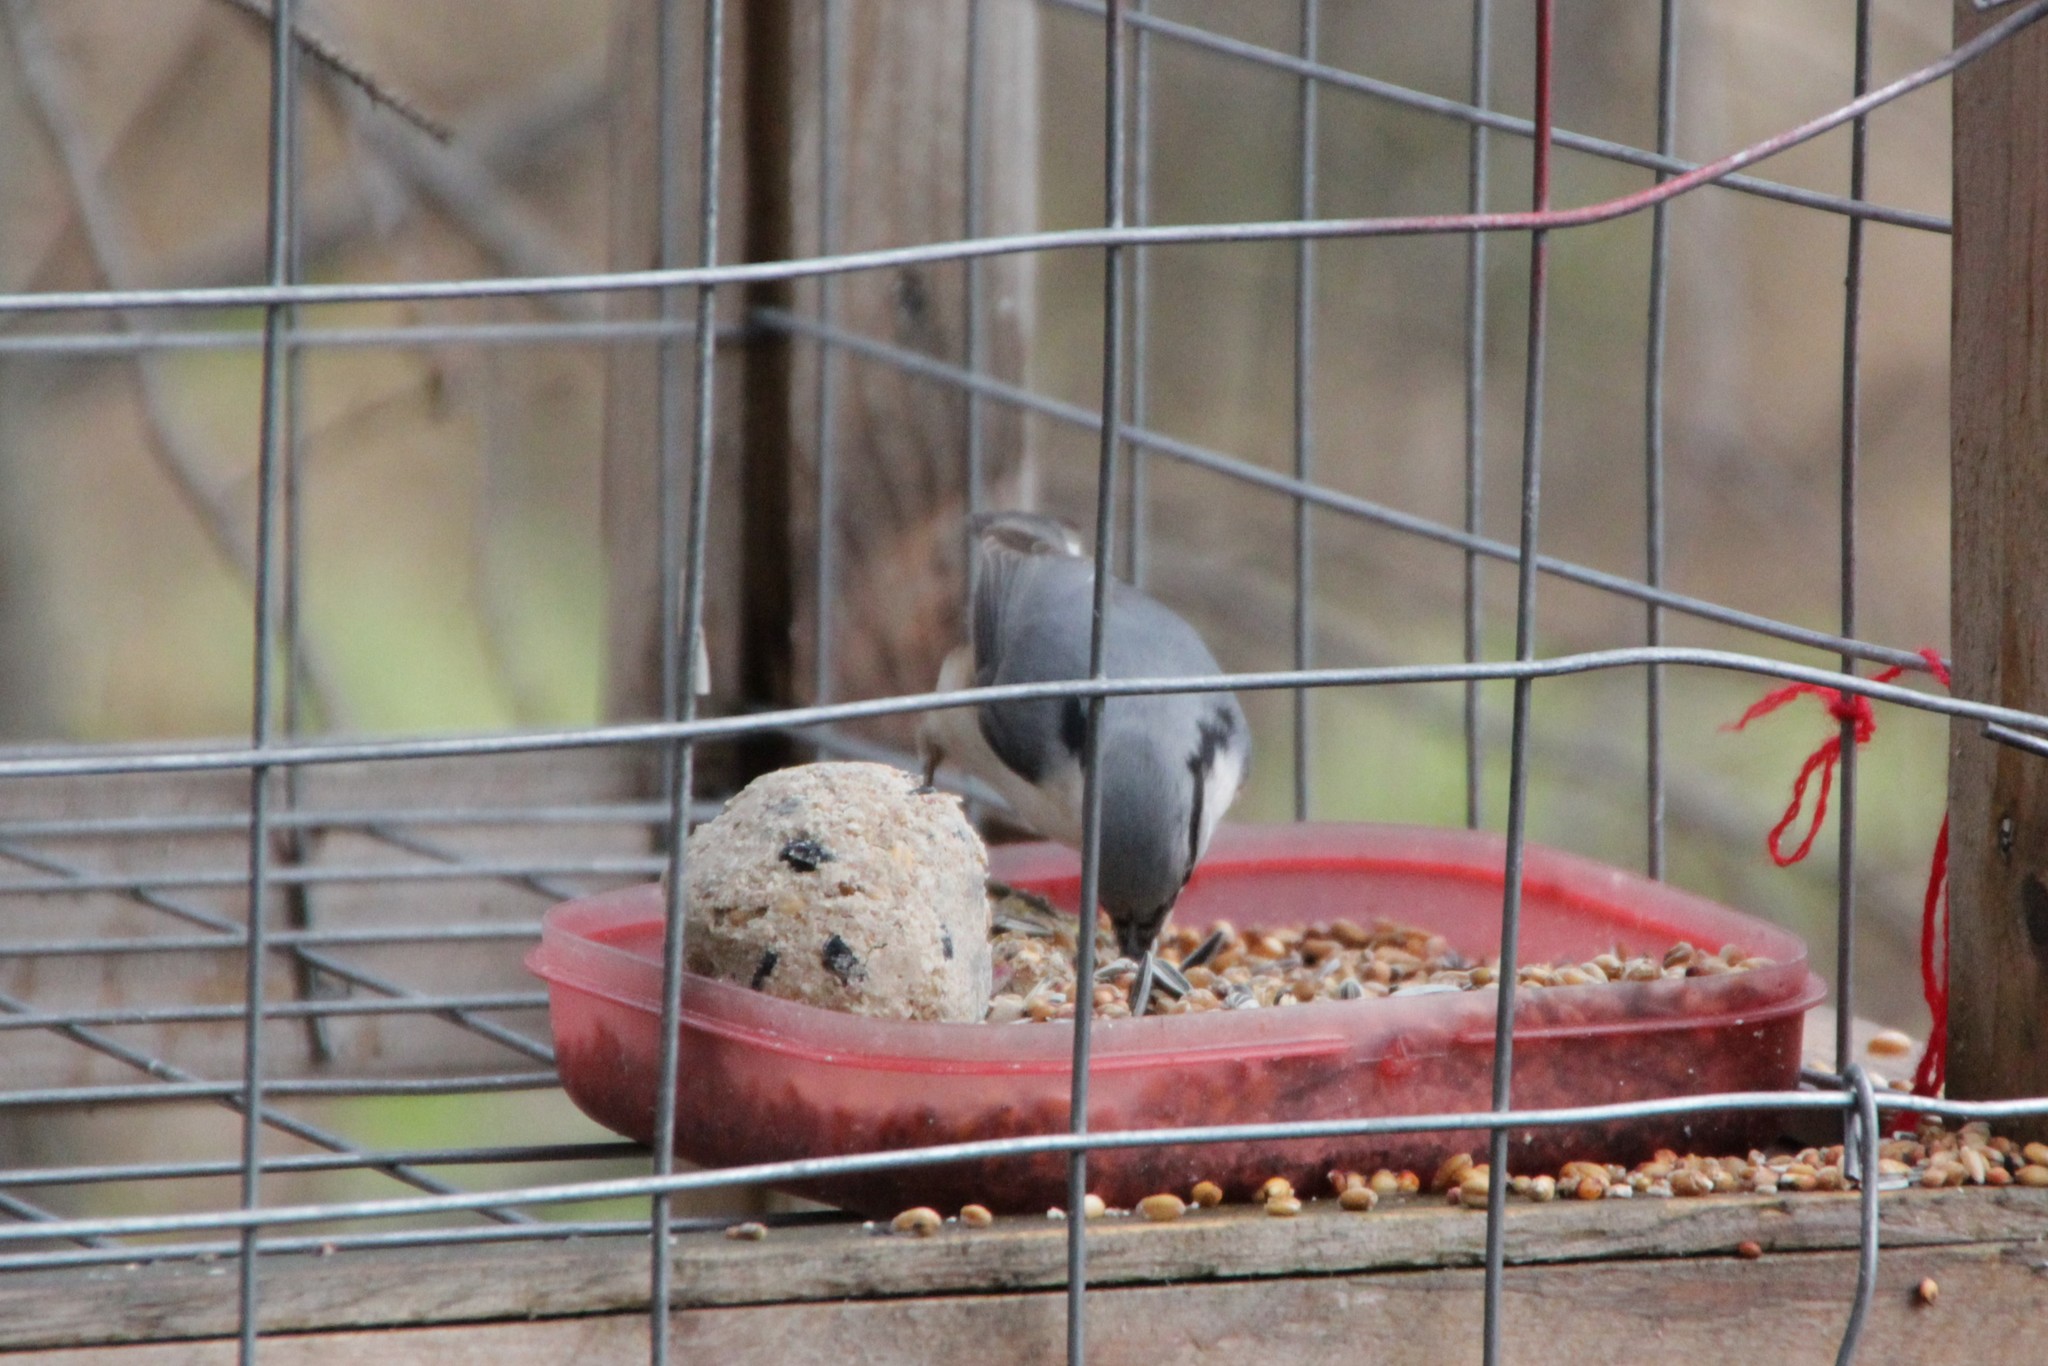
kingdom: Animalia
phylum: Chordata
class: Aves
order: Passeriformes
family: Sittidae
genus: Sitta
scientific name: Sitta europaea
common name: Eurasian nuthatch
